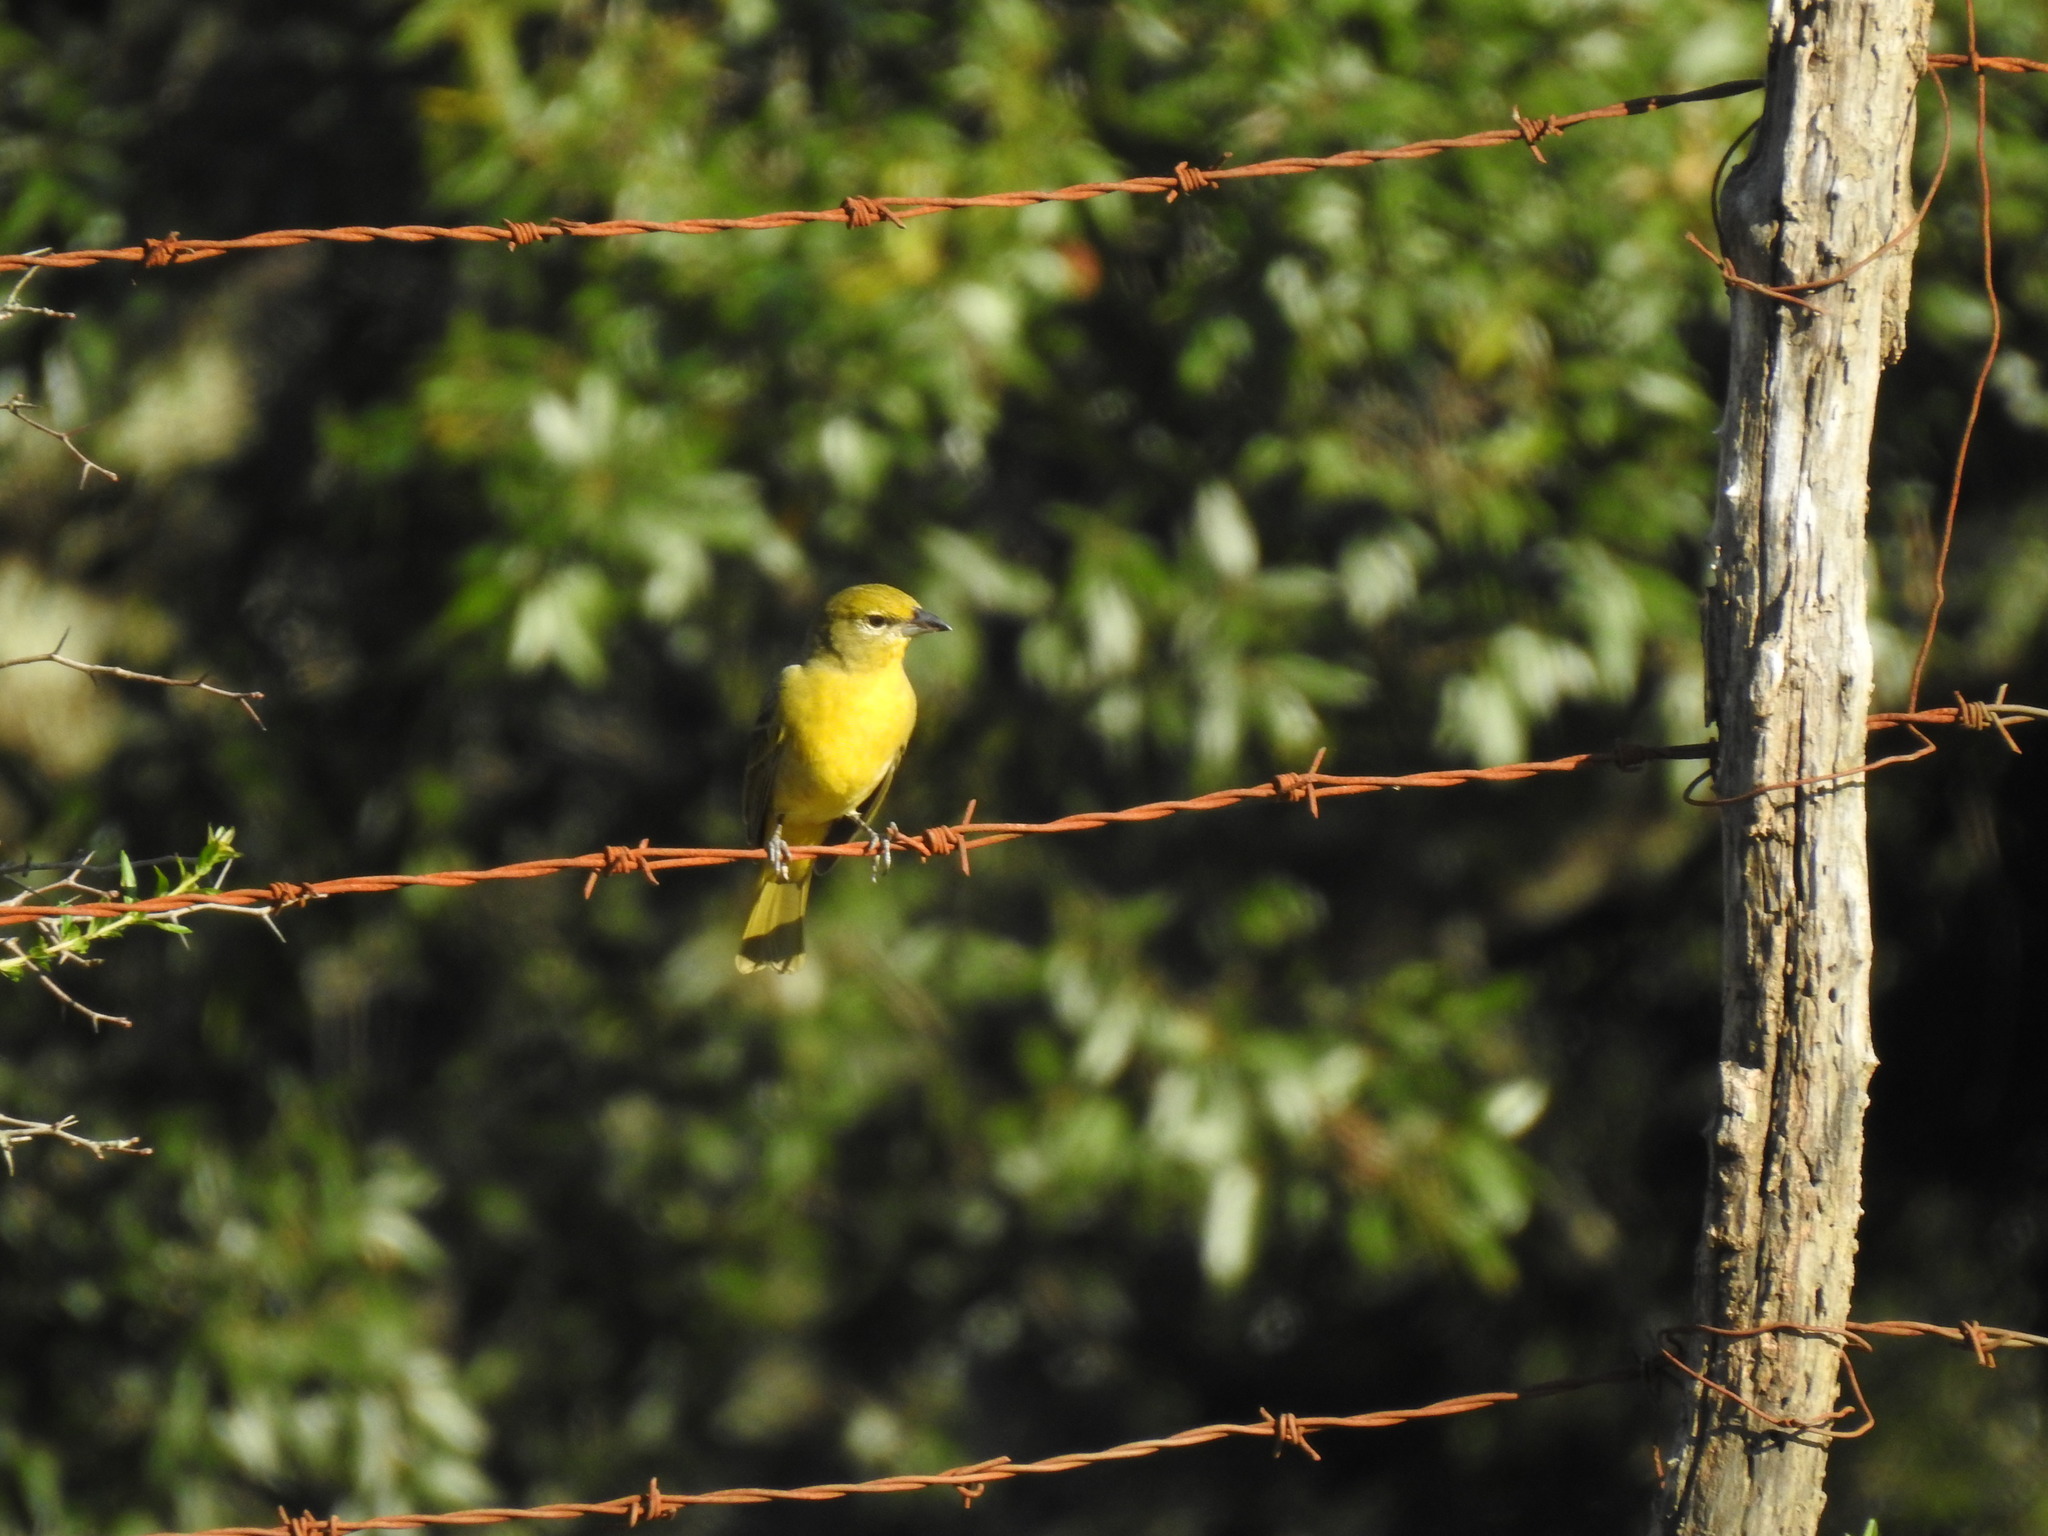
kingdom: Animalia
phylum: Chordata
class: Aves
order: Passeriformes
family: Cardinalidae
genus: Piranga
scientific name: Piranga flava
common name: Red tanager
